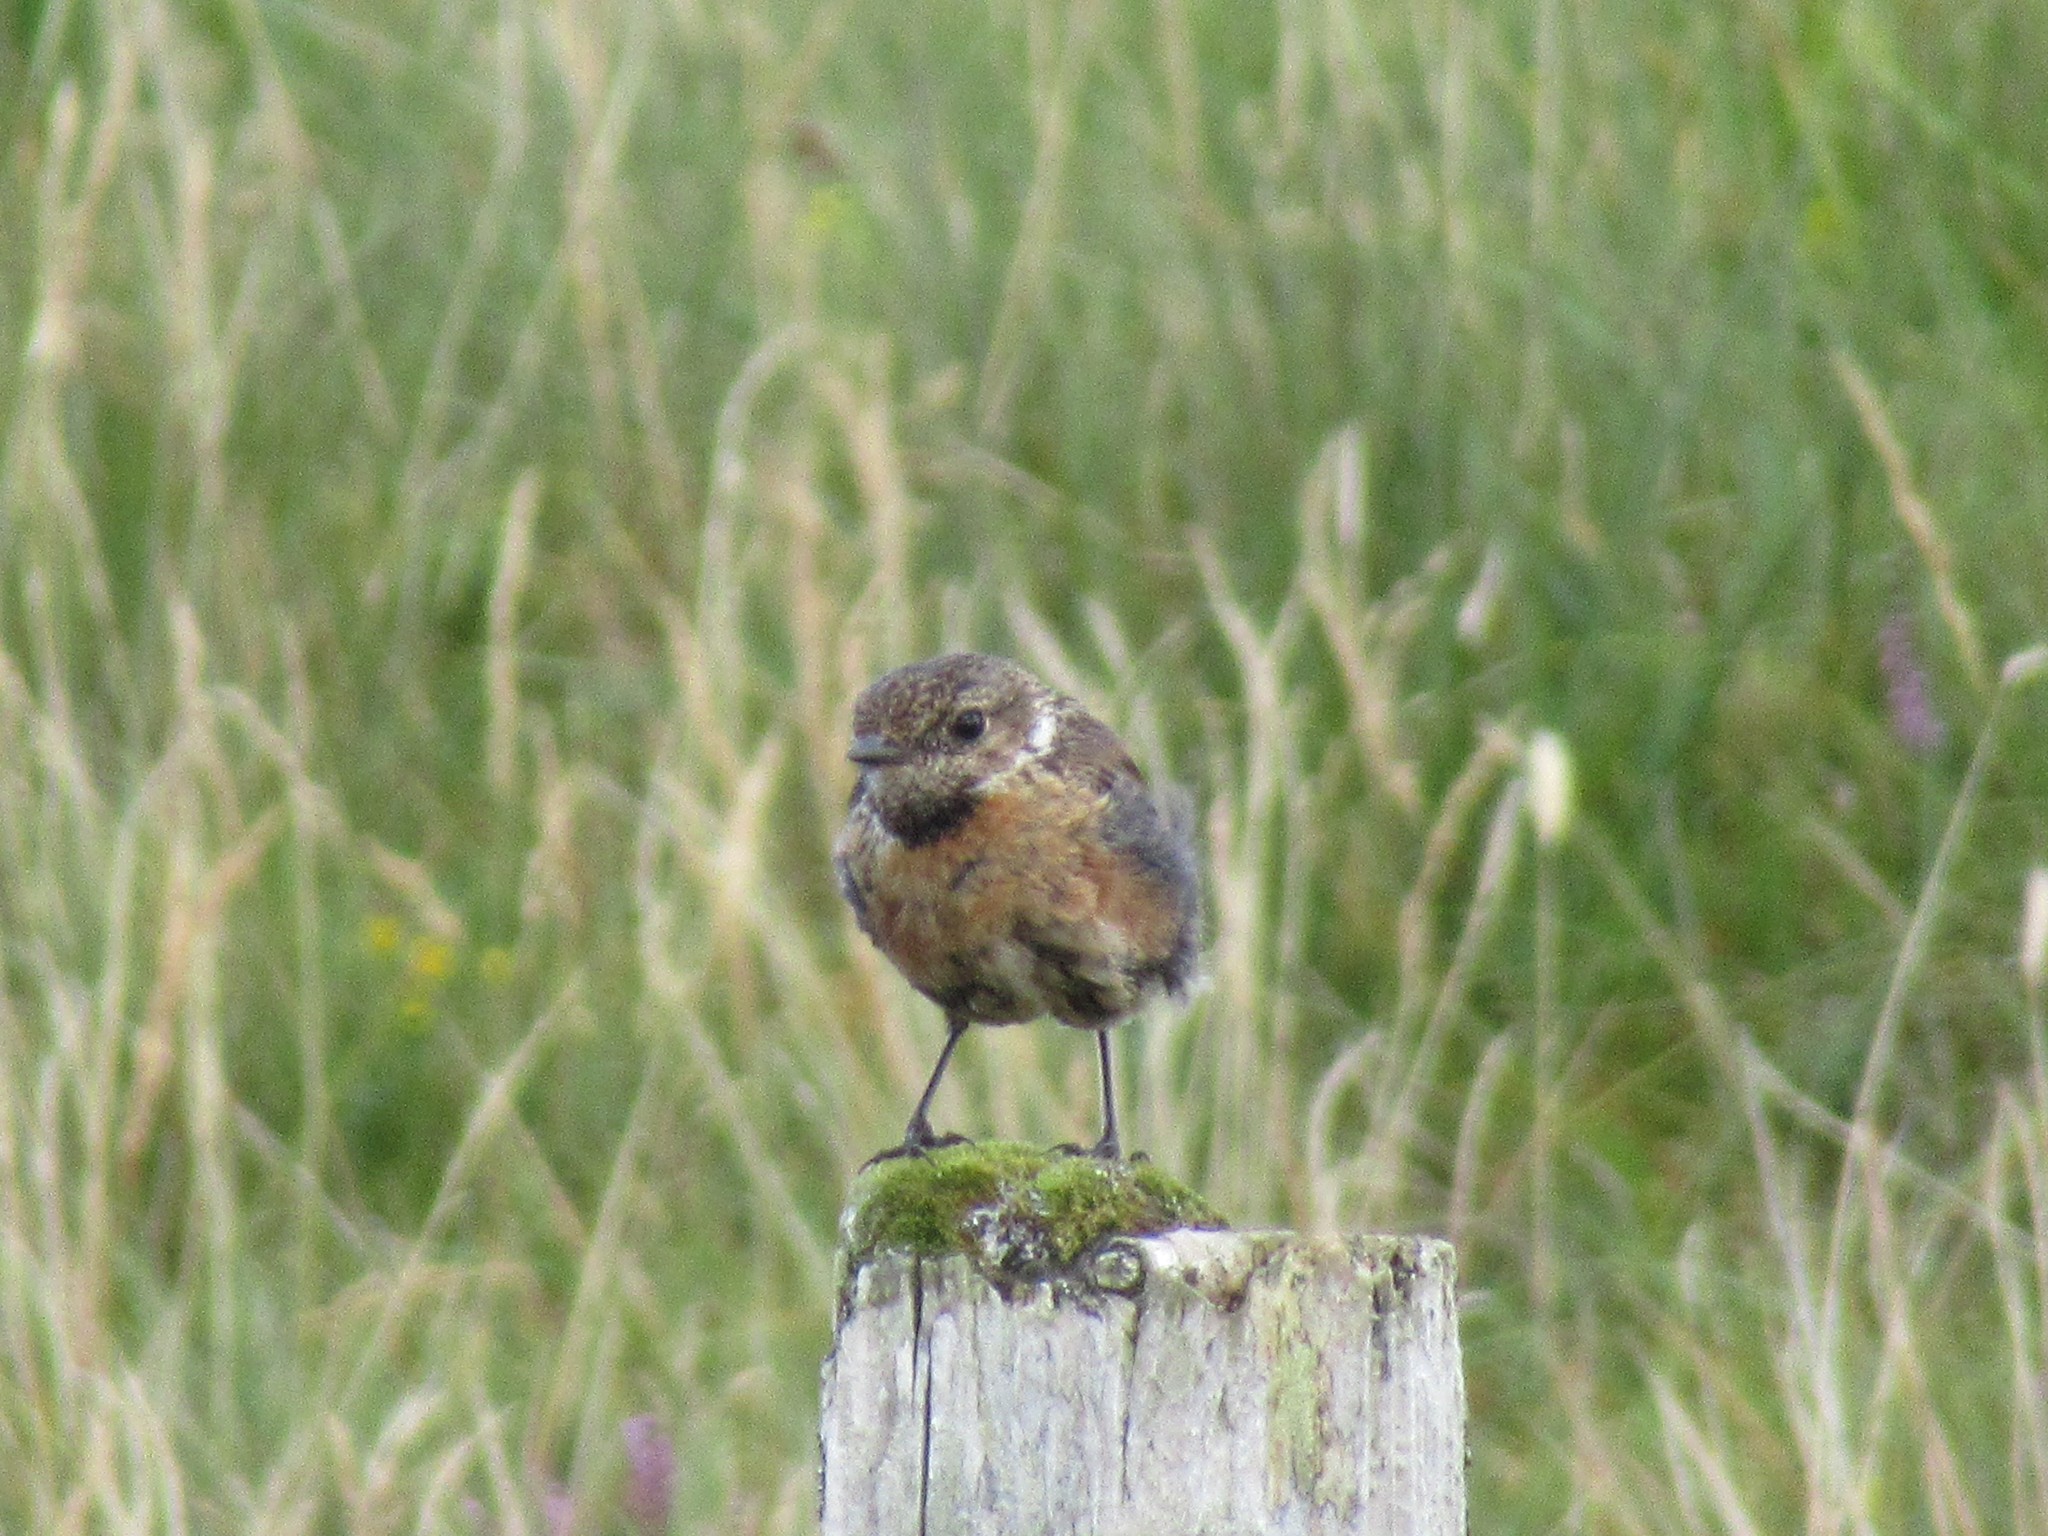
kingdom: Animalia
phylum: Chordata
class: Aves
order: Passeriformes
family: Muscicapidae
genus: Saxicola
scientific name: Saxicola rubicola
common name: European stonechat
